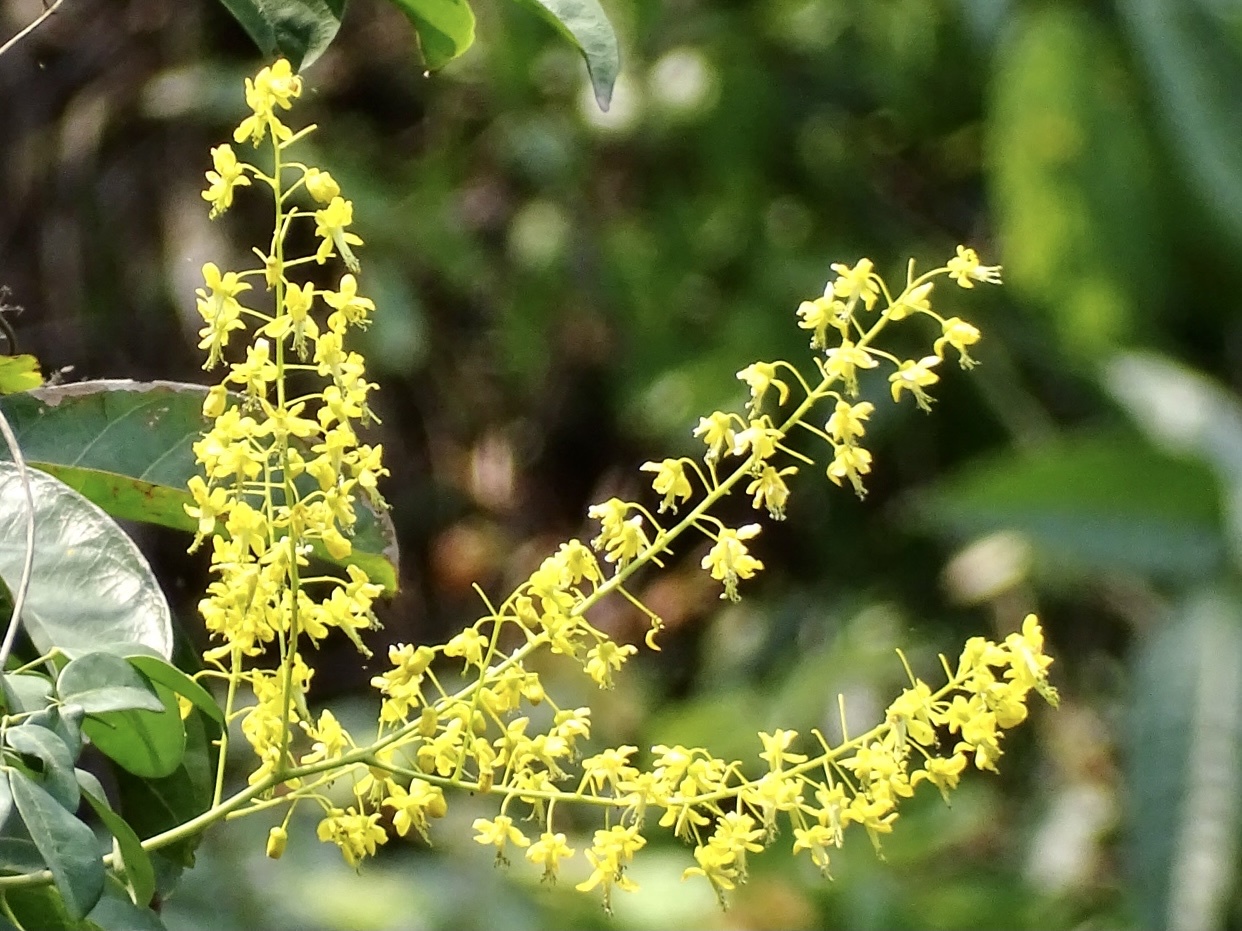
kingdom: Plantae
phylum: Tracheophyta
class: Magnoliopsida
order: Fabales
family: Fabaceae
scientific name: Fabaceae
